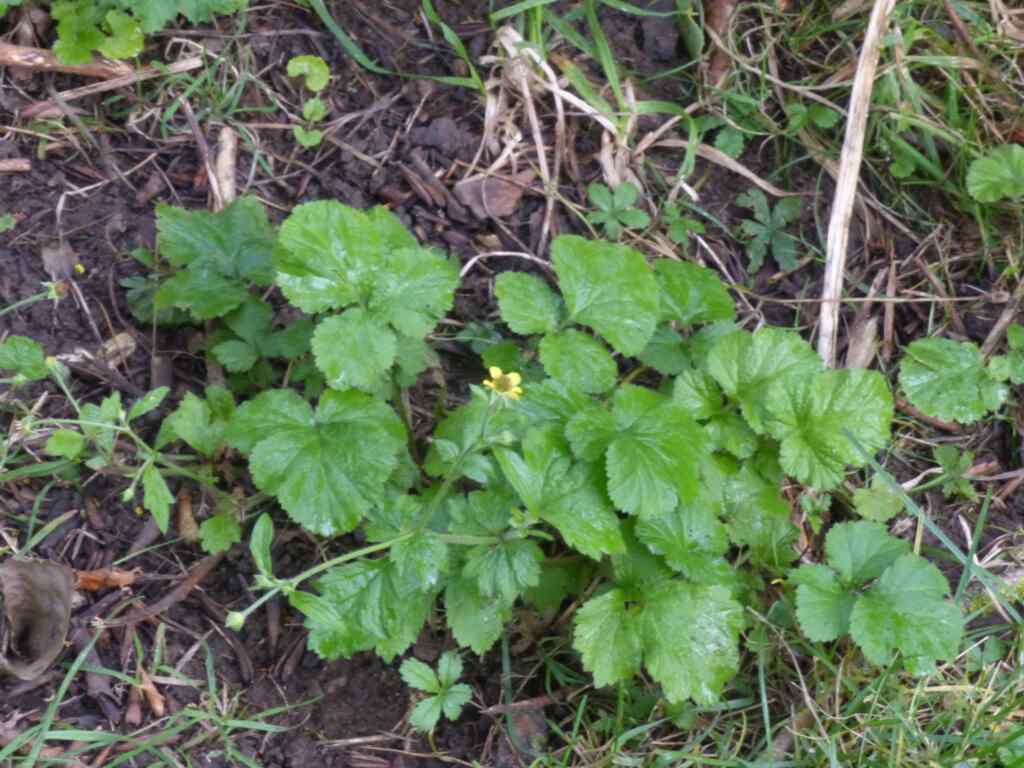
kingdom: Plantae
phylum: Tracheophyta
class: Magnoliopsida
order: Rosales
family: Rosaceae
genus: Geum
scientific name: Geum urbanum
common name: Wood avens
